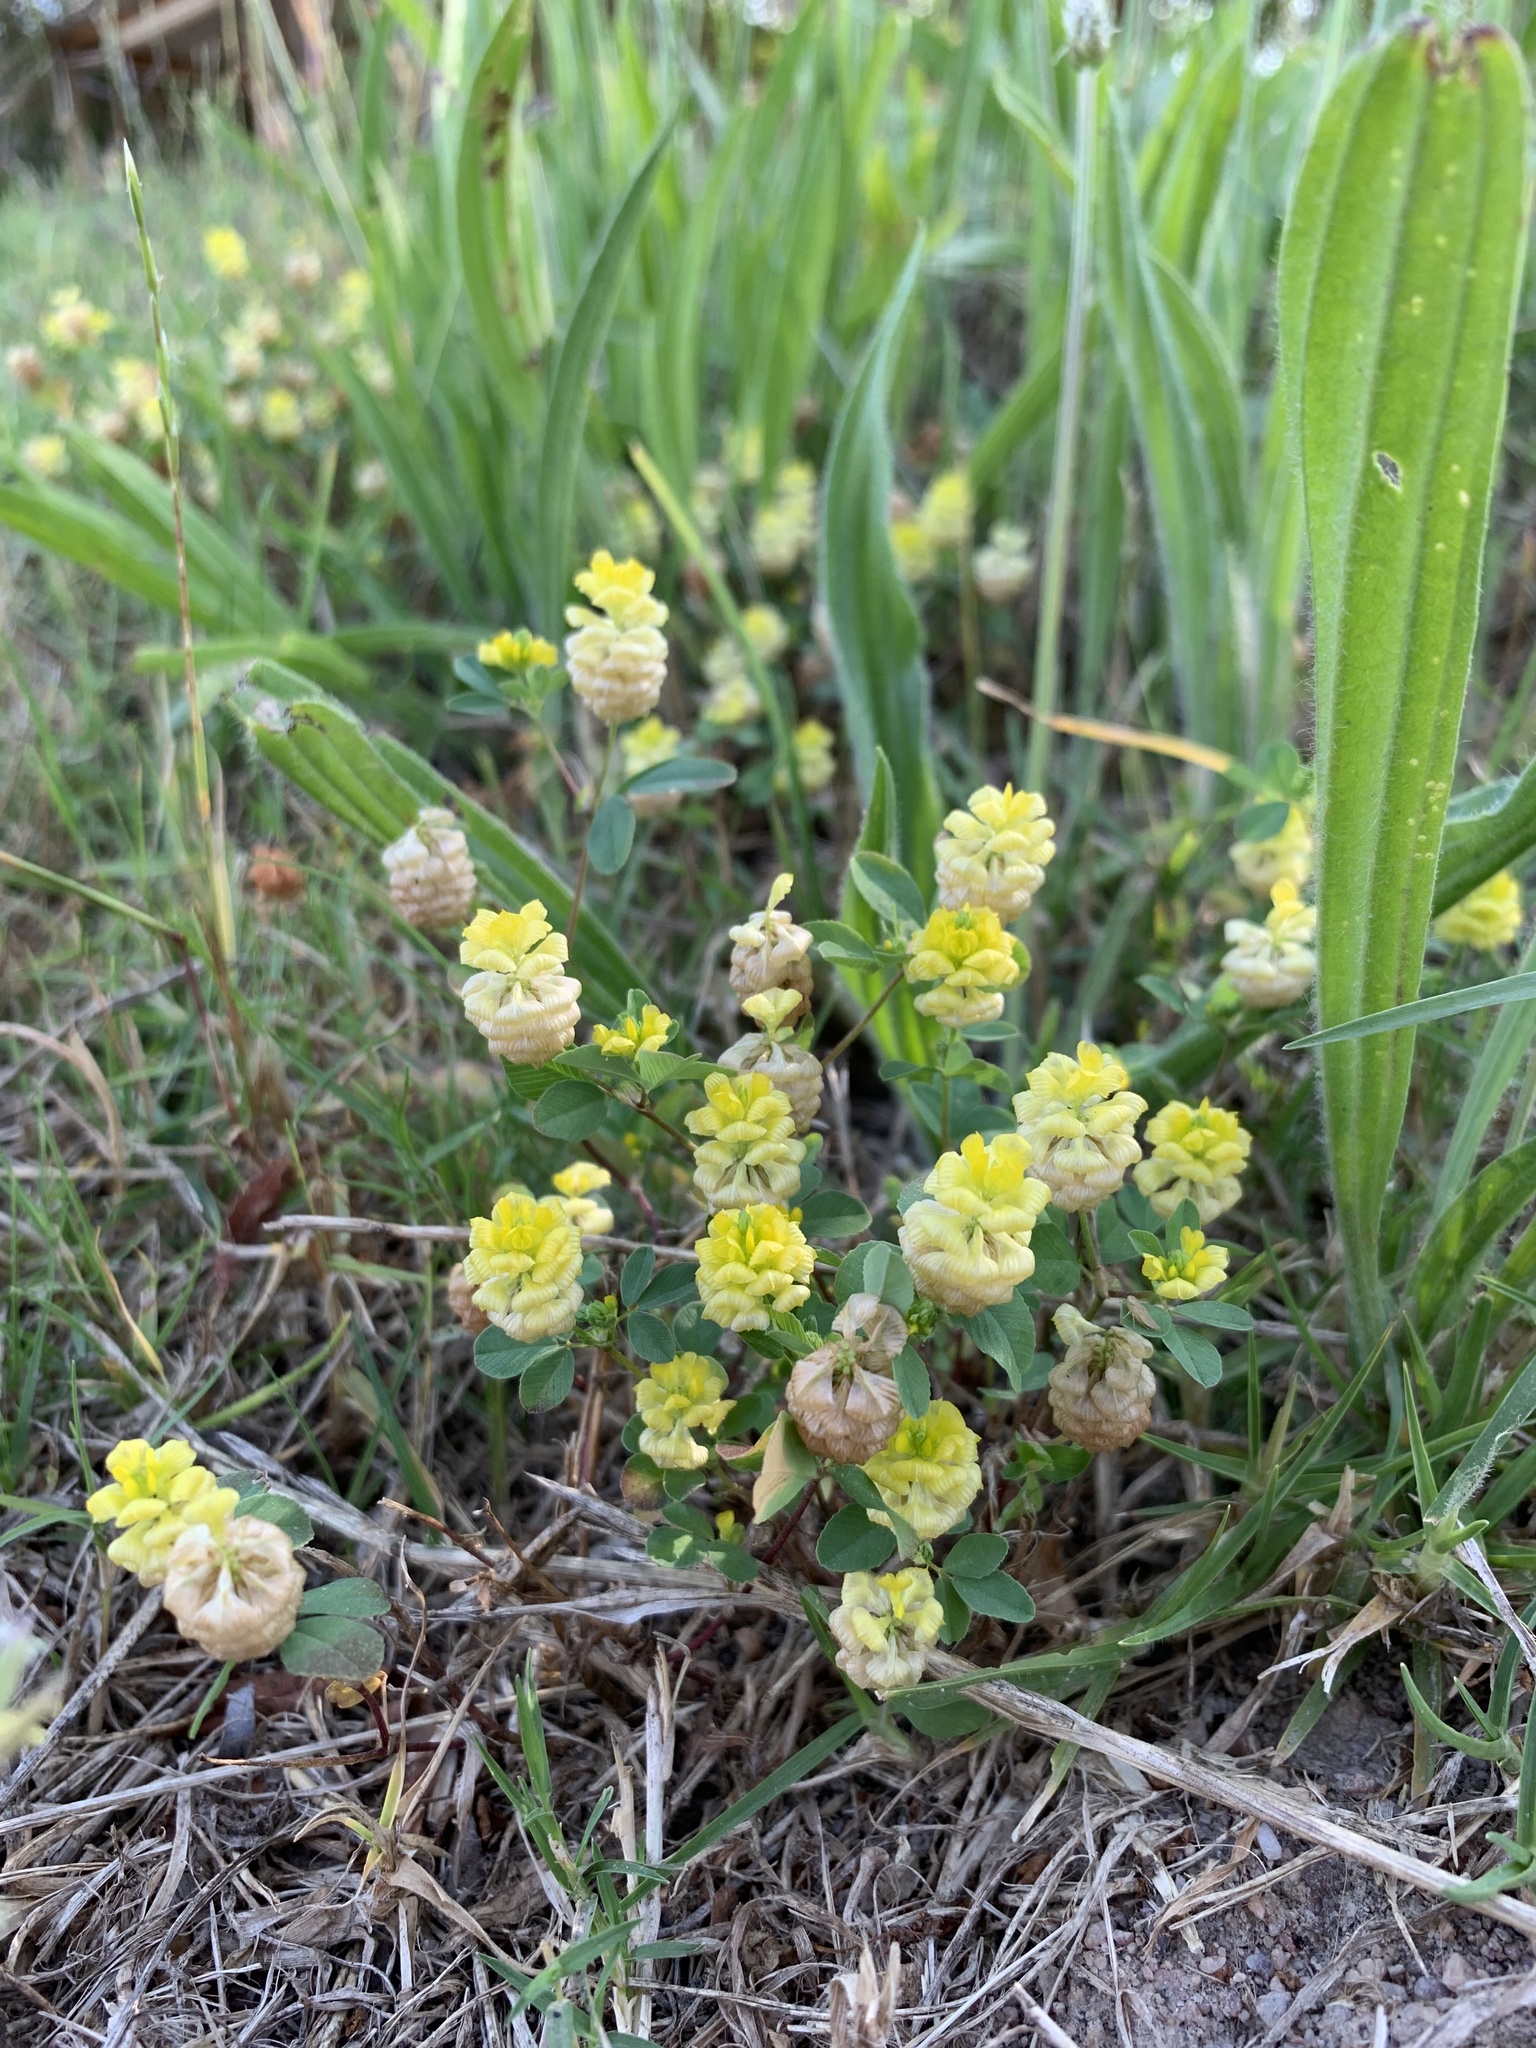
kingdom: Plantae
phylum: Tracheophyta
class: Magnoliopsida
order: Fabales
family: Fabaceae
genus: Trifolium
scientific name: Trifolium campestre
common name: Field clover
